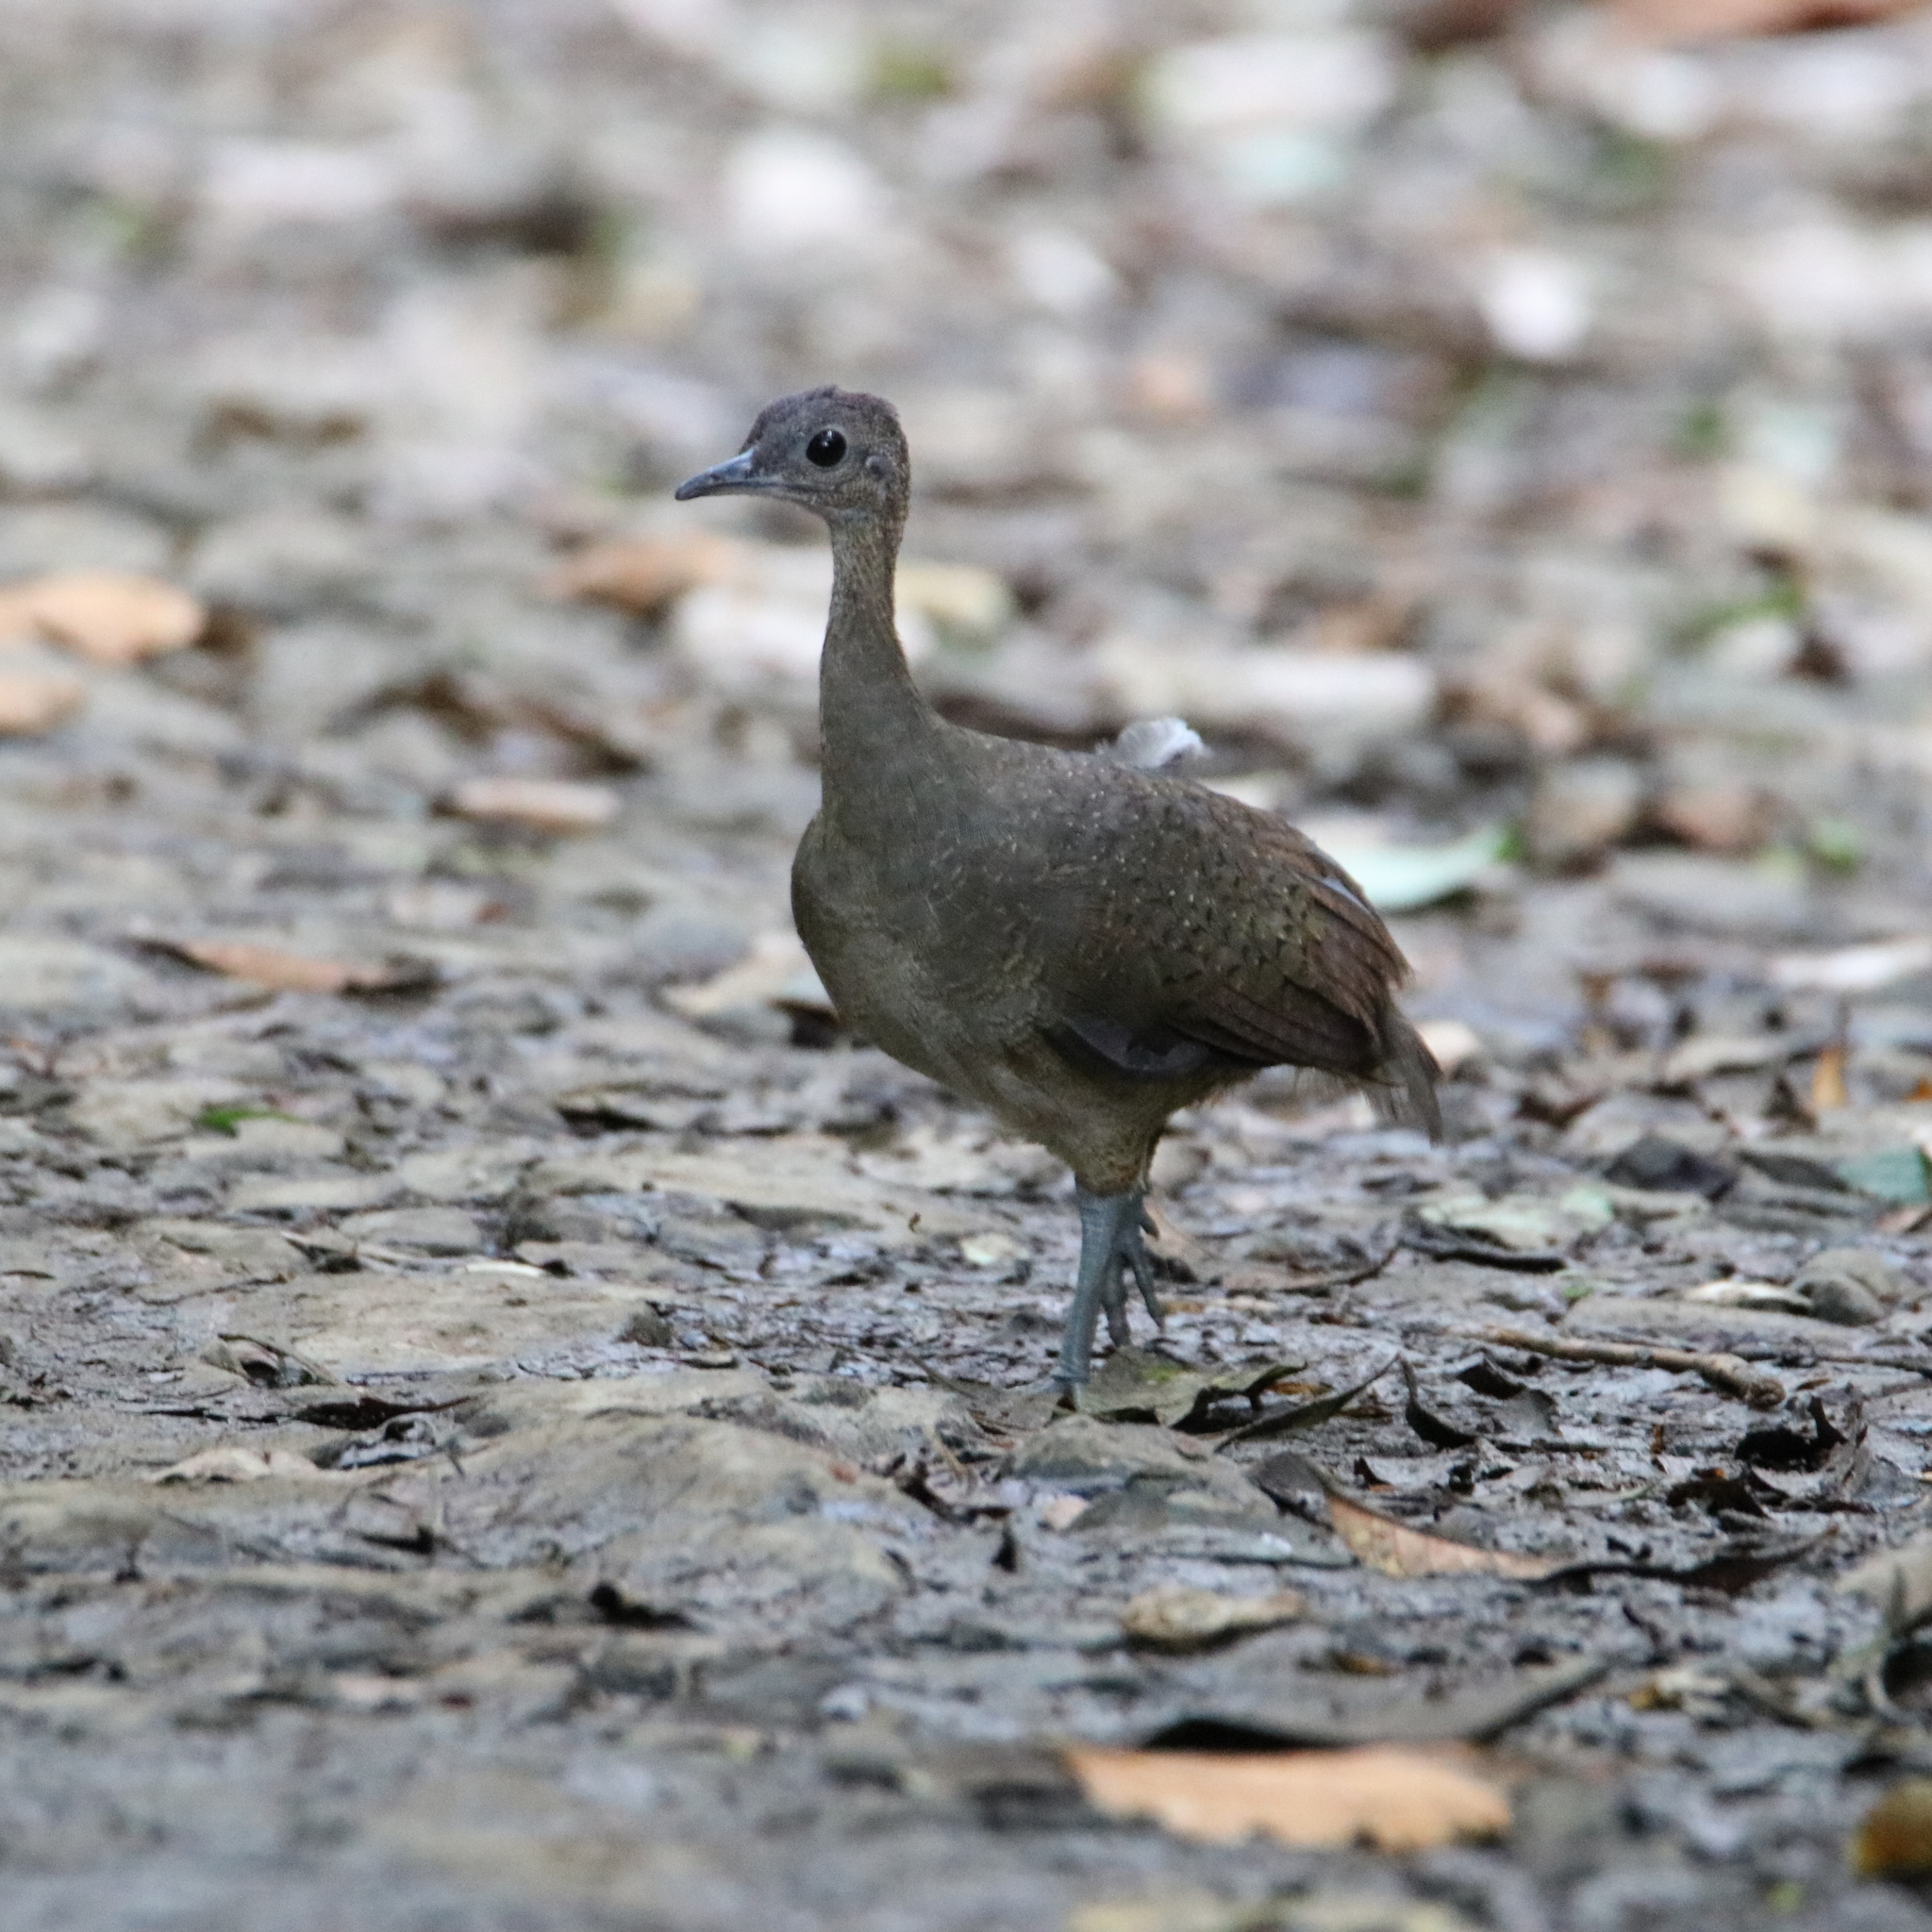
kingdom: Animalia
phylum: Chordata
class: Aves
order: Tinamiformes
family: Tinamidae
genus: Tinamus
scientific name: Tinamus major
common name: Great tinamou
